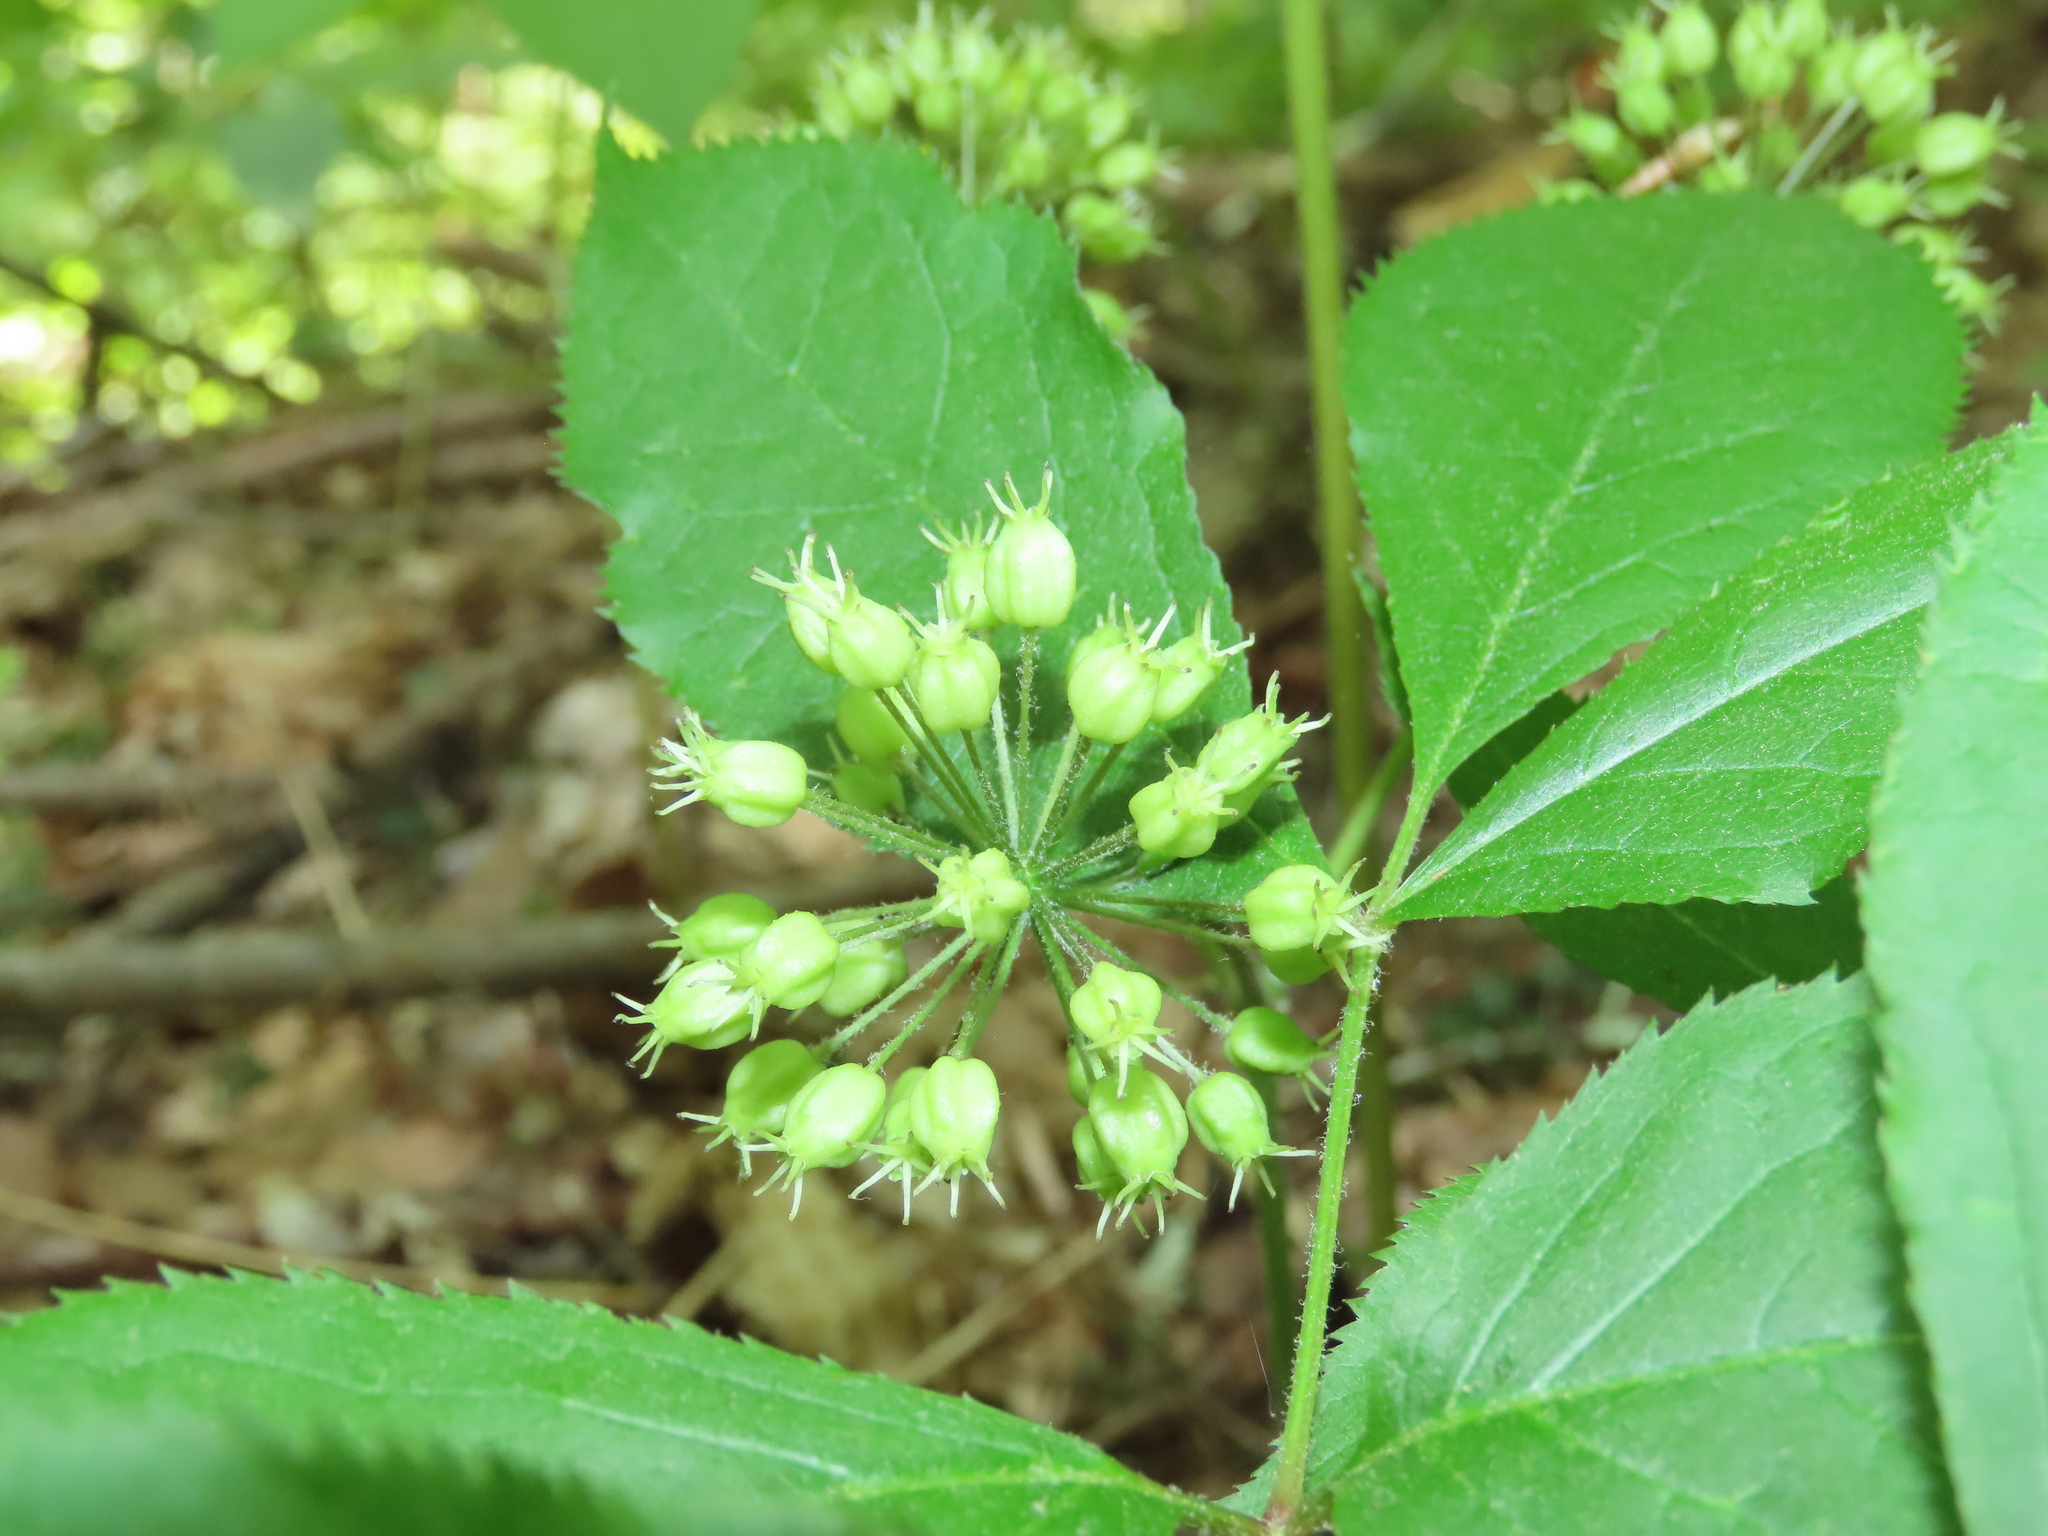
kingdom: Plantae
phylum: Tracheophyta
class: Magnoliopsida
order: Apiales
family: Araliaceae
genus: Aralia
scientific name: Aralia nudicaulis
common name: Wild sarsaparilla
